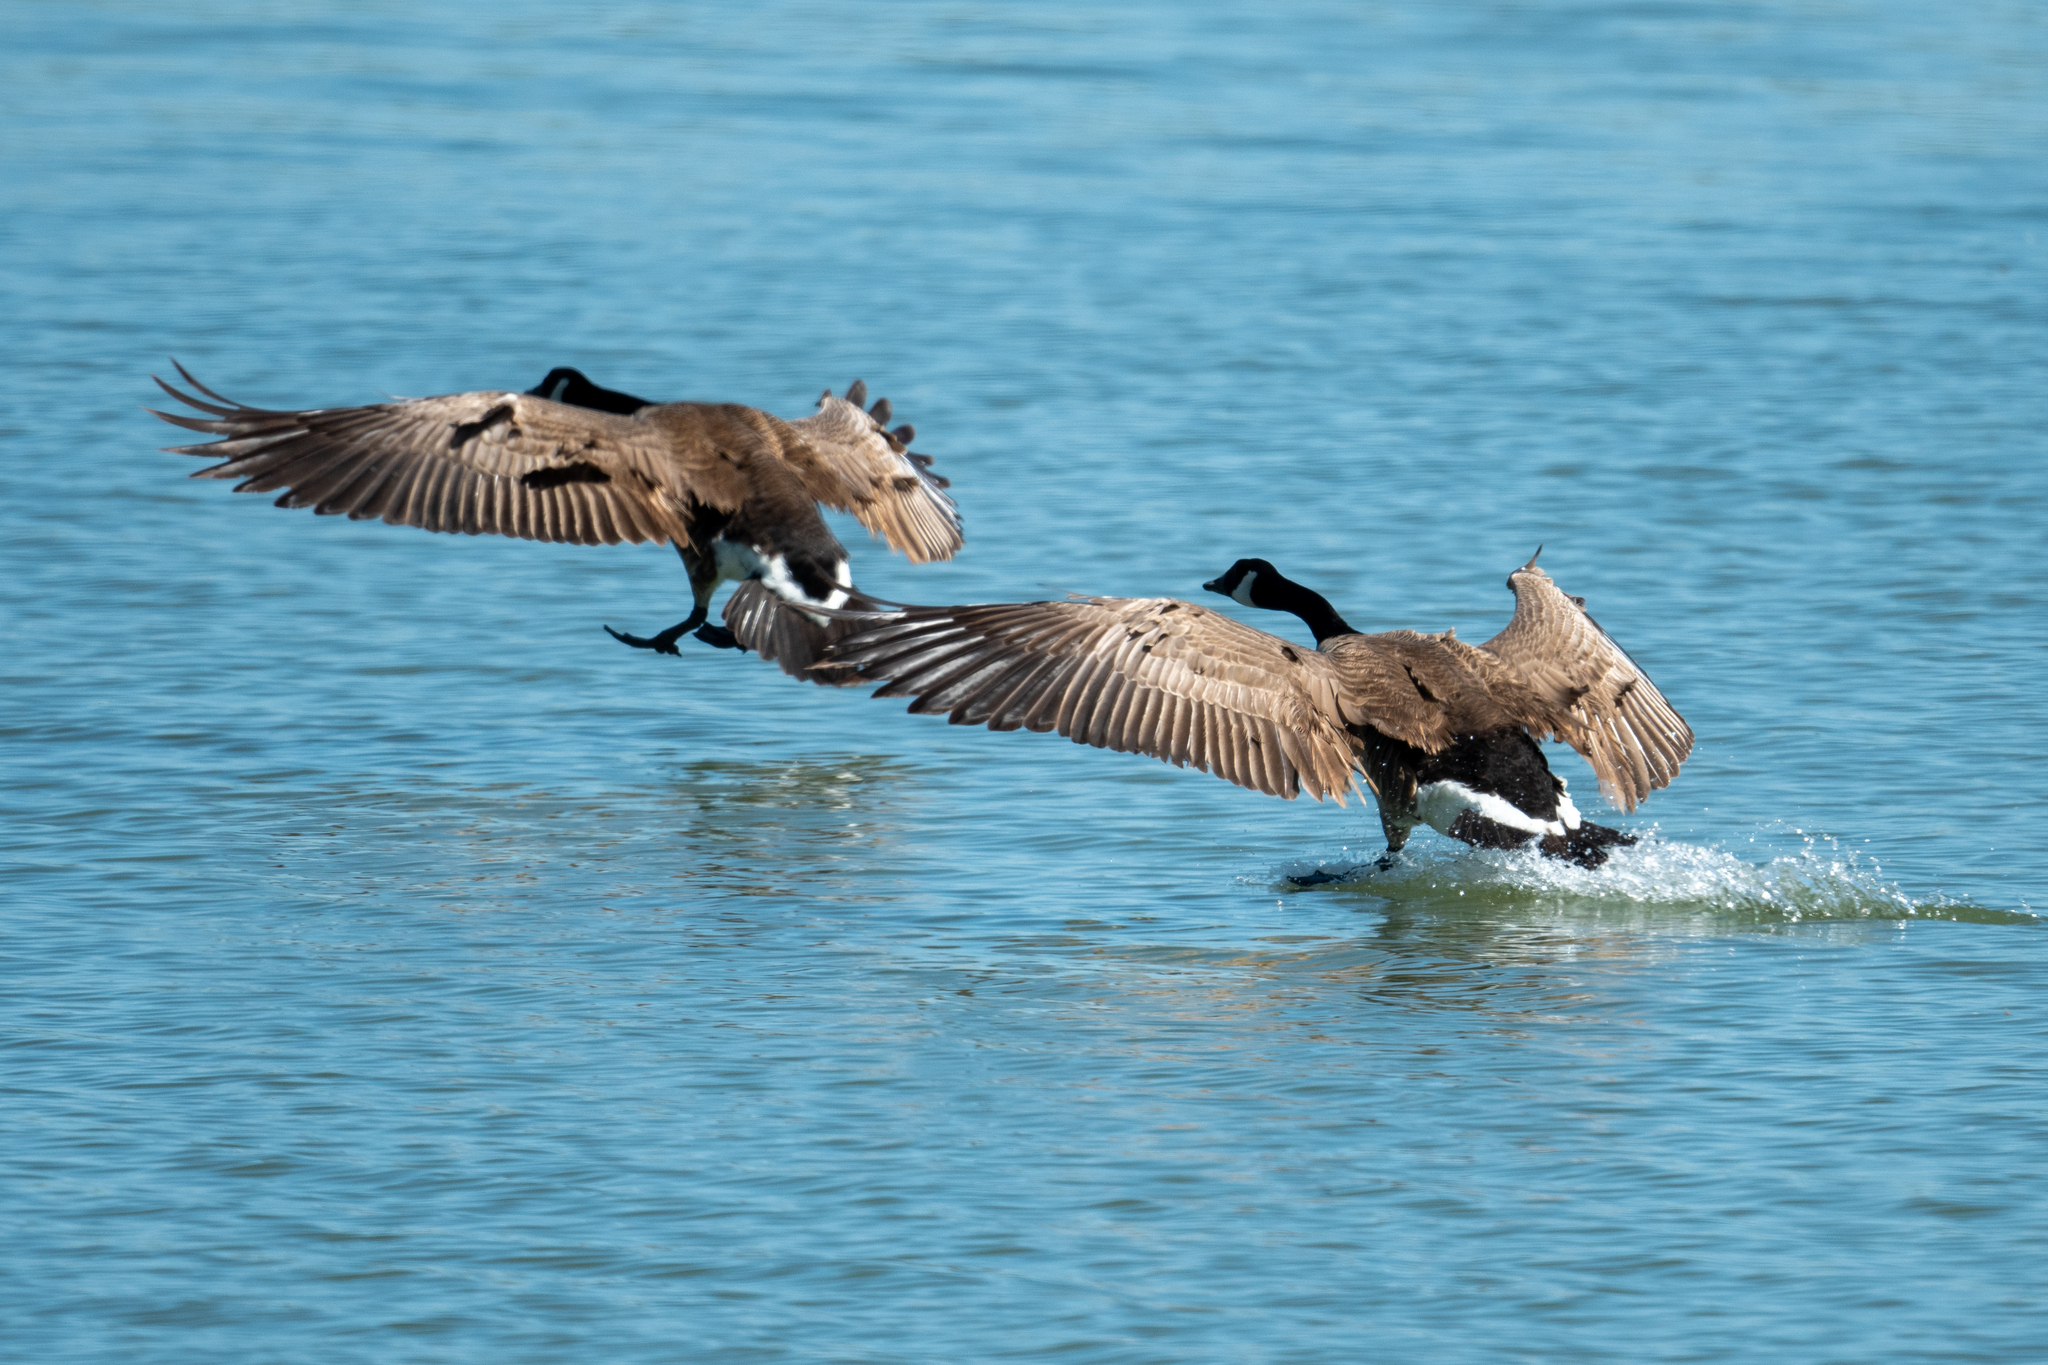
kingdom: Animalia
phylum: Chordata
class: Aves
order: Anseriformes
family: Anatidae
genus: Branta
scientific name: Branta canadensis
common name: Canada goose
